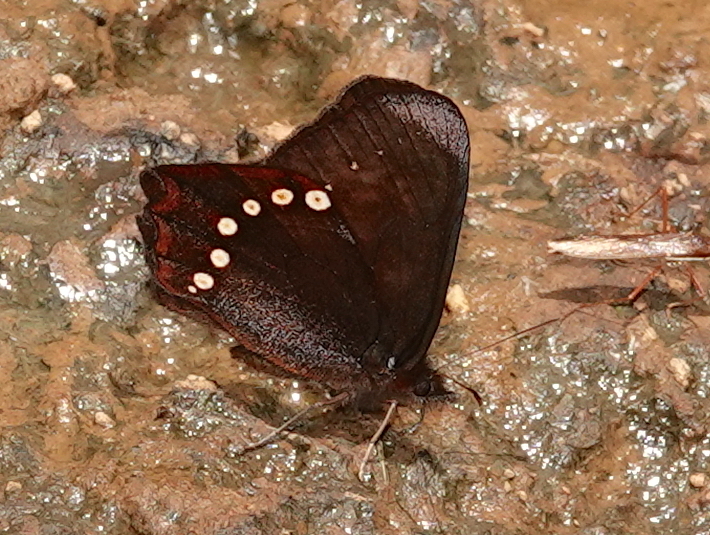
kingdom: Animalia
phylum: Arthropoda
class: Insecta
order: Lepidoptera
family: Nymphalidae
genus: Ianussiusa
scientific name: Ianussiusa maso
